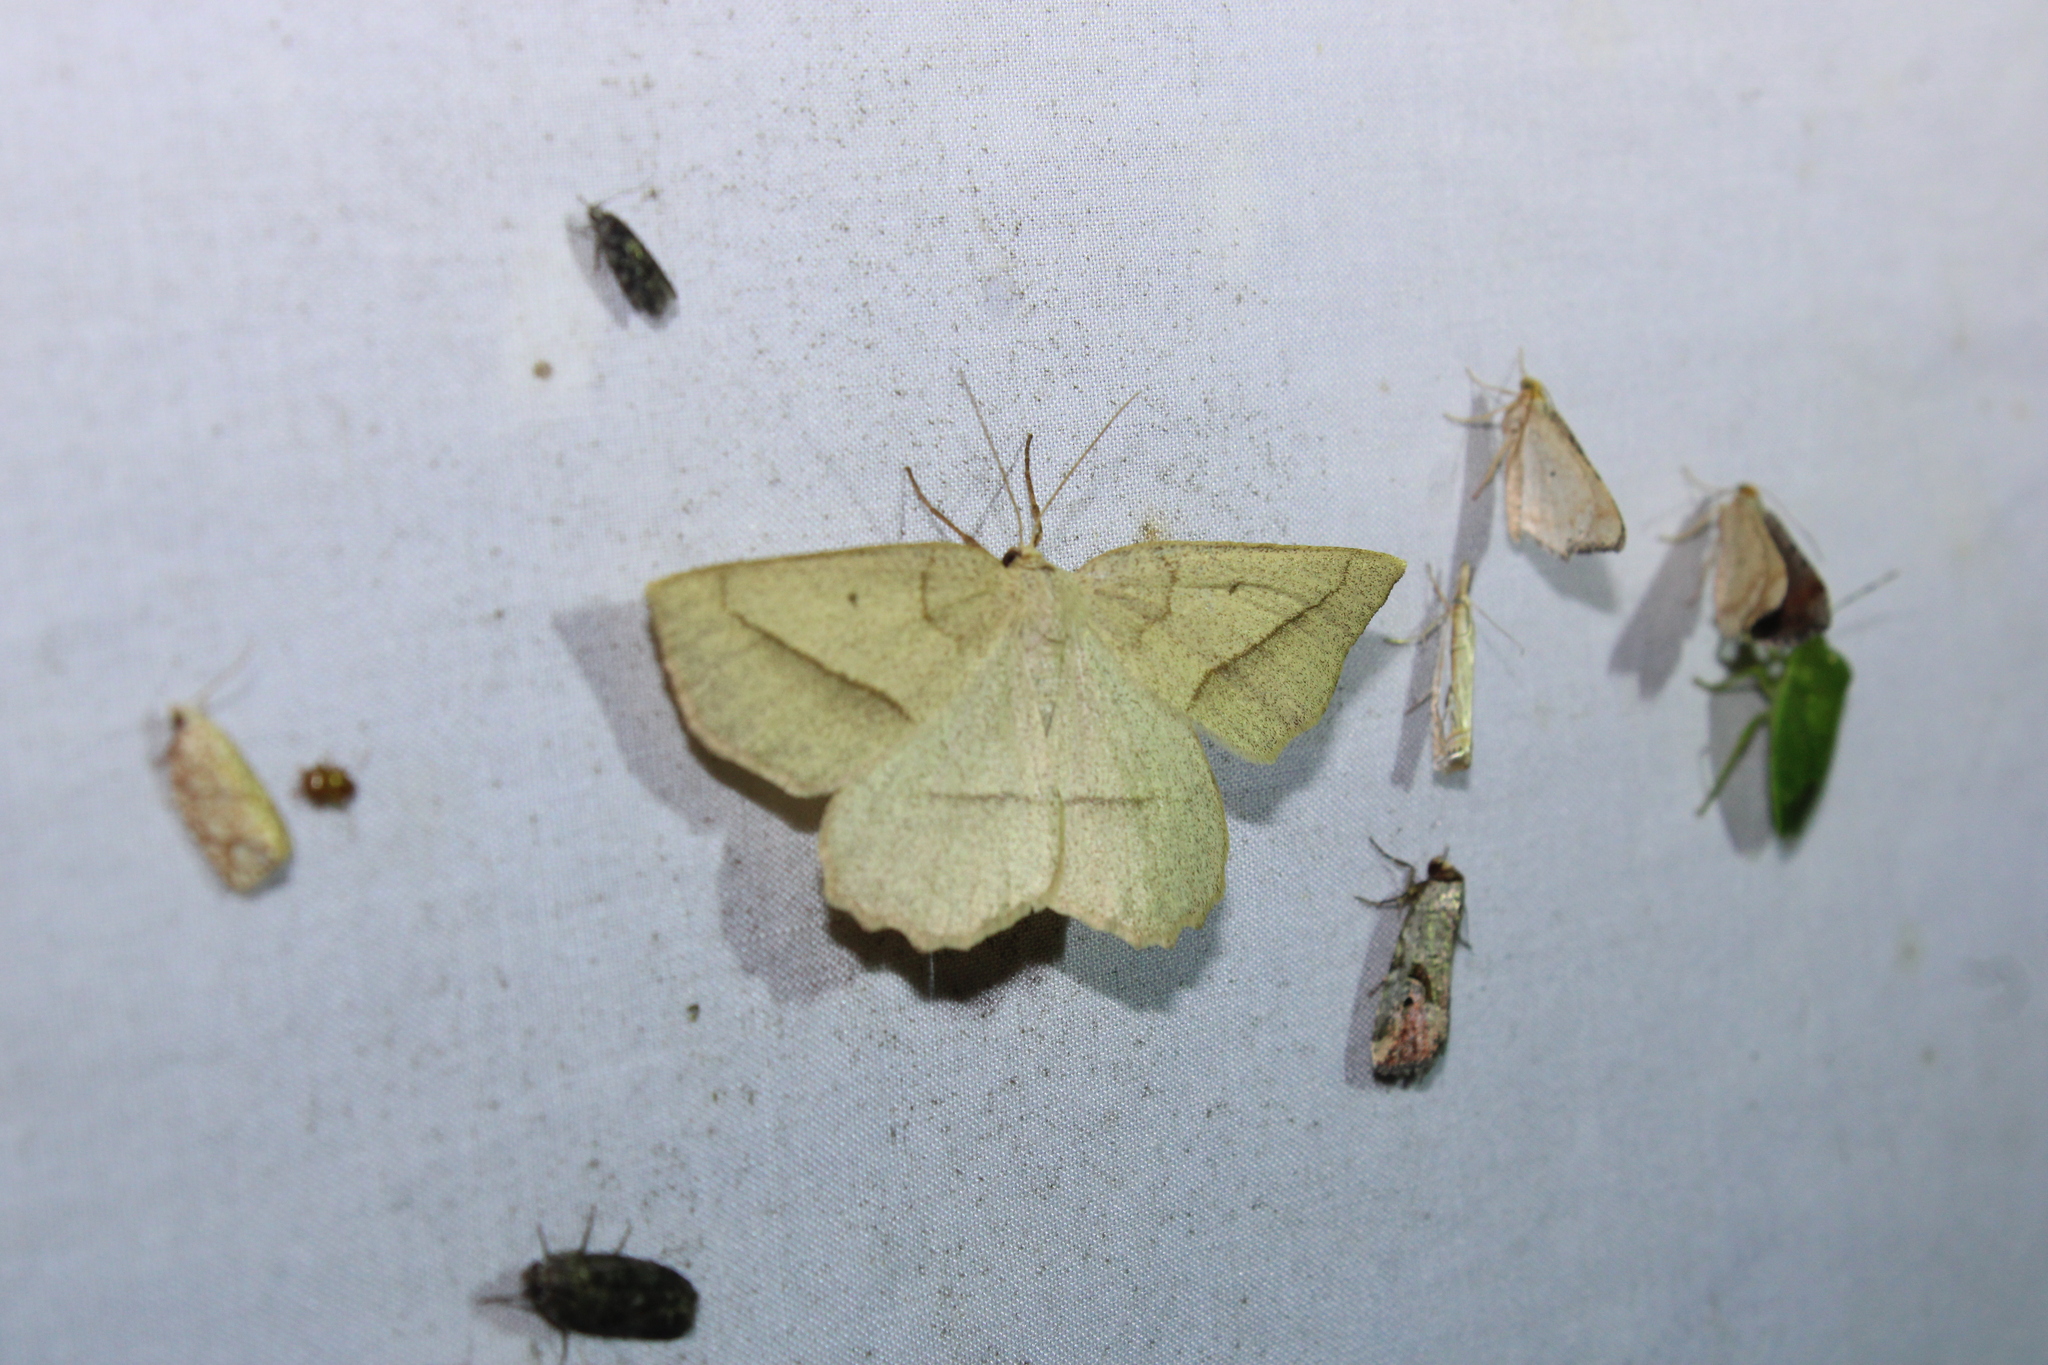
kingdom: Animalia
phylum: Arthropoda
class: Insecta
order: Lepidoptera
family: Geometridae
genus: Euchlaena
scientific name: Euchlaena irraria
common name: Least-marked euchlaena
